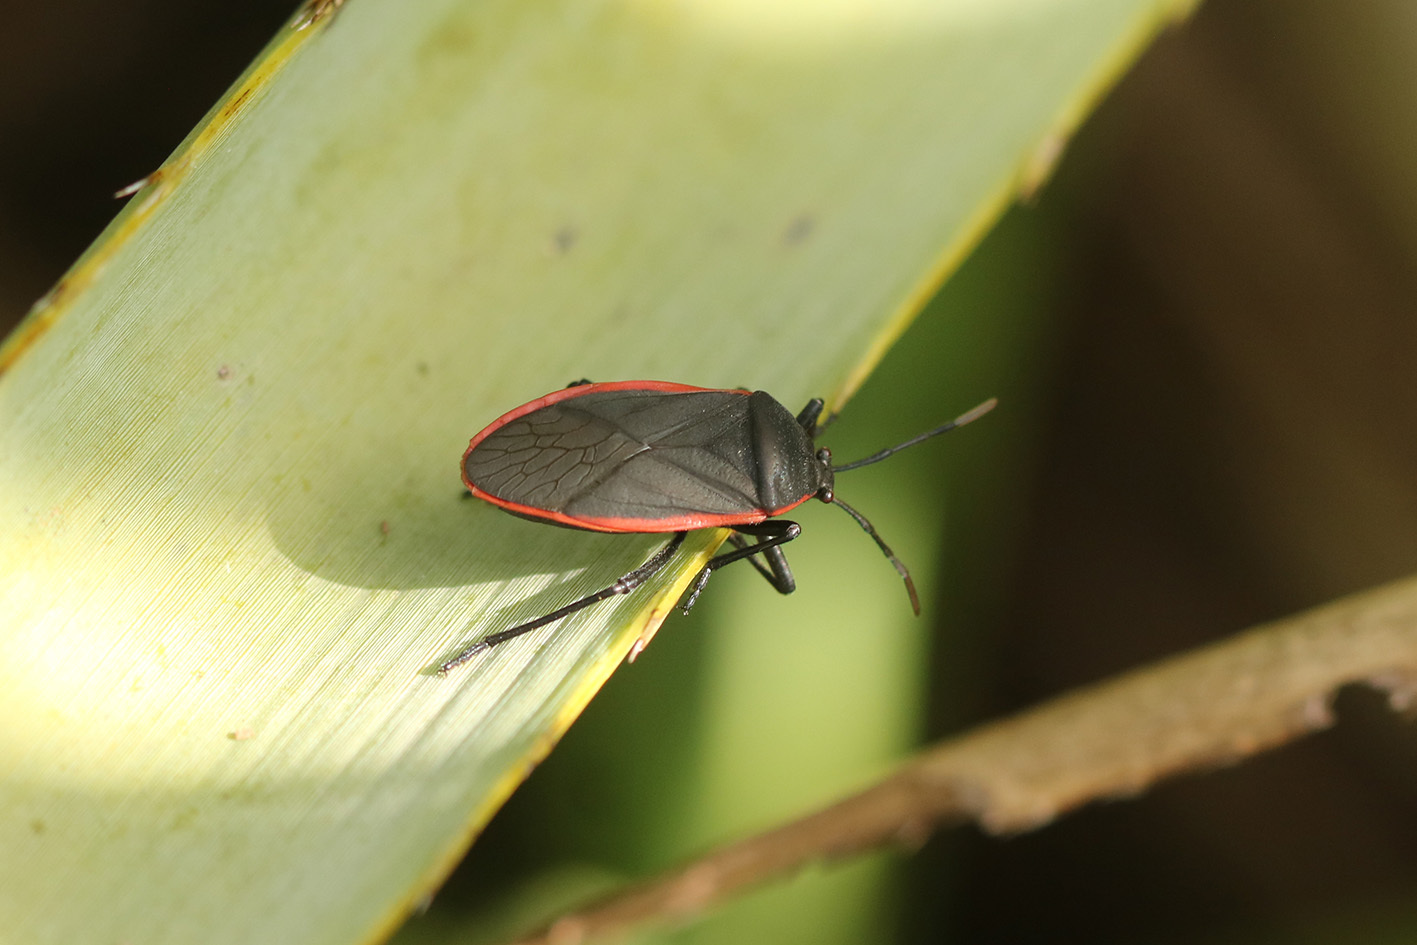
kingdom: Animalia
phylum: Arthropoda
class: Insecta
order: Hemiptera
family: Largidae
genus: Largus
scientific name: Largus rufipennis
